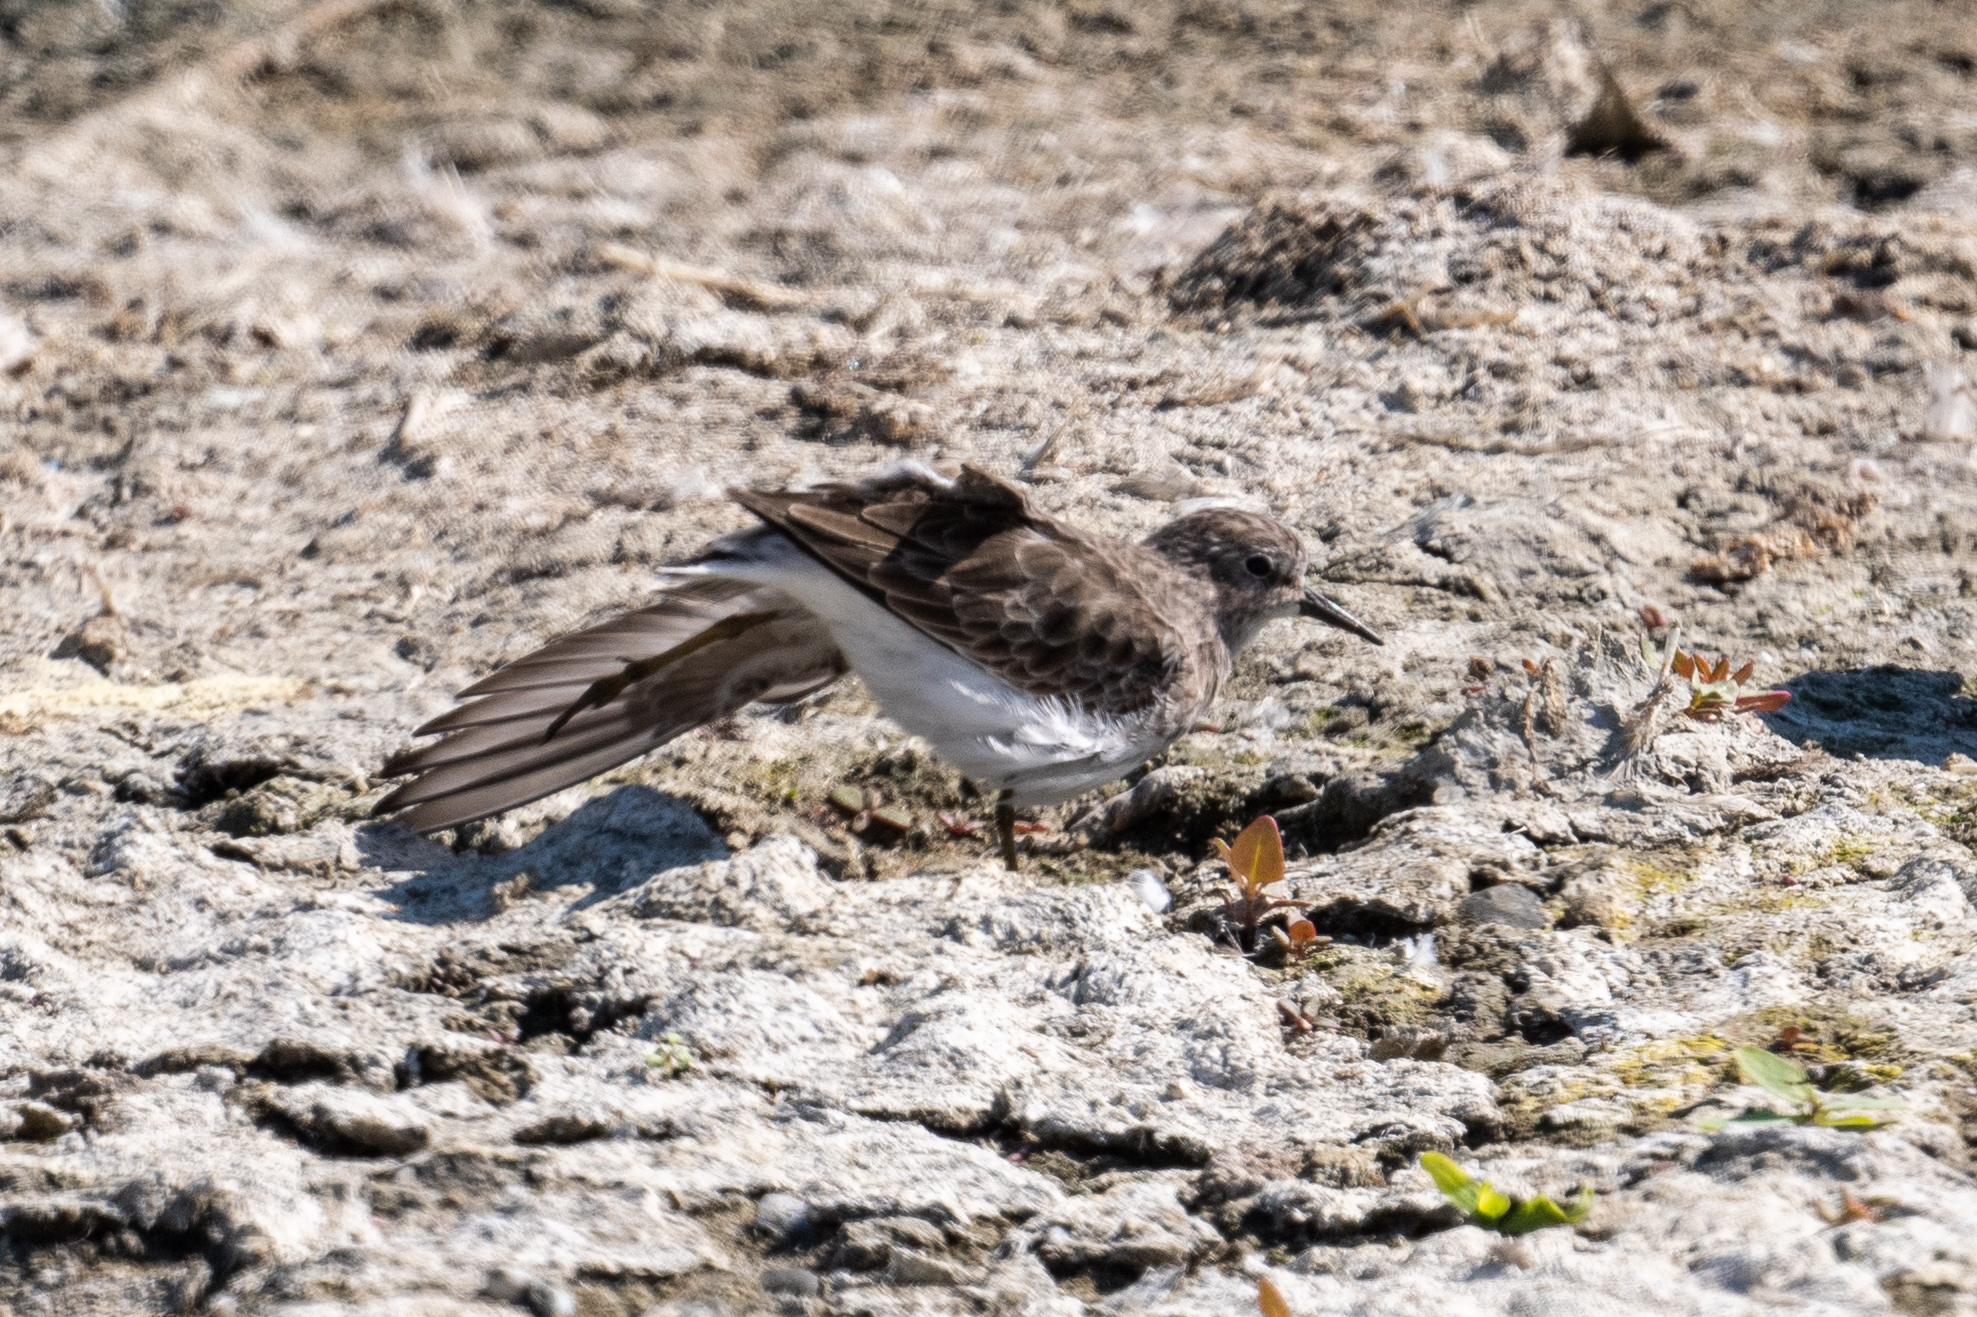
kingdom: Animalia
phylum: Chordata
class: Aves
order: Charadriiformes
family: Scolopacidae
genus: Calidris
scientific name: Calidris minutilla
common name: Least sandpiper
